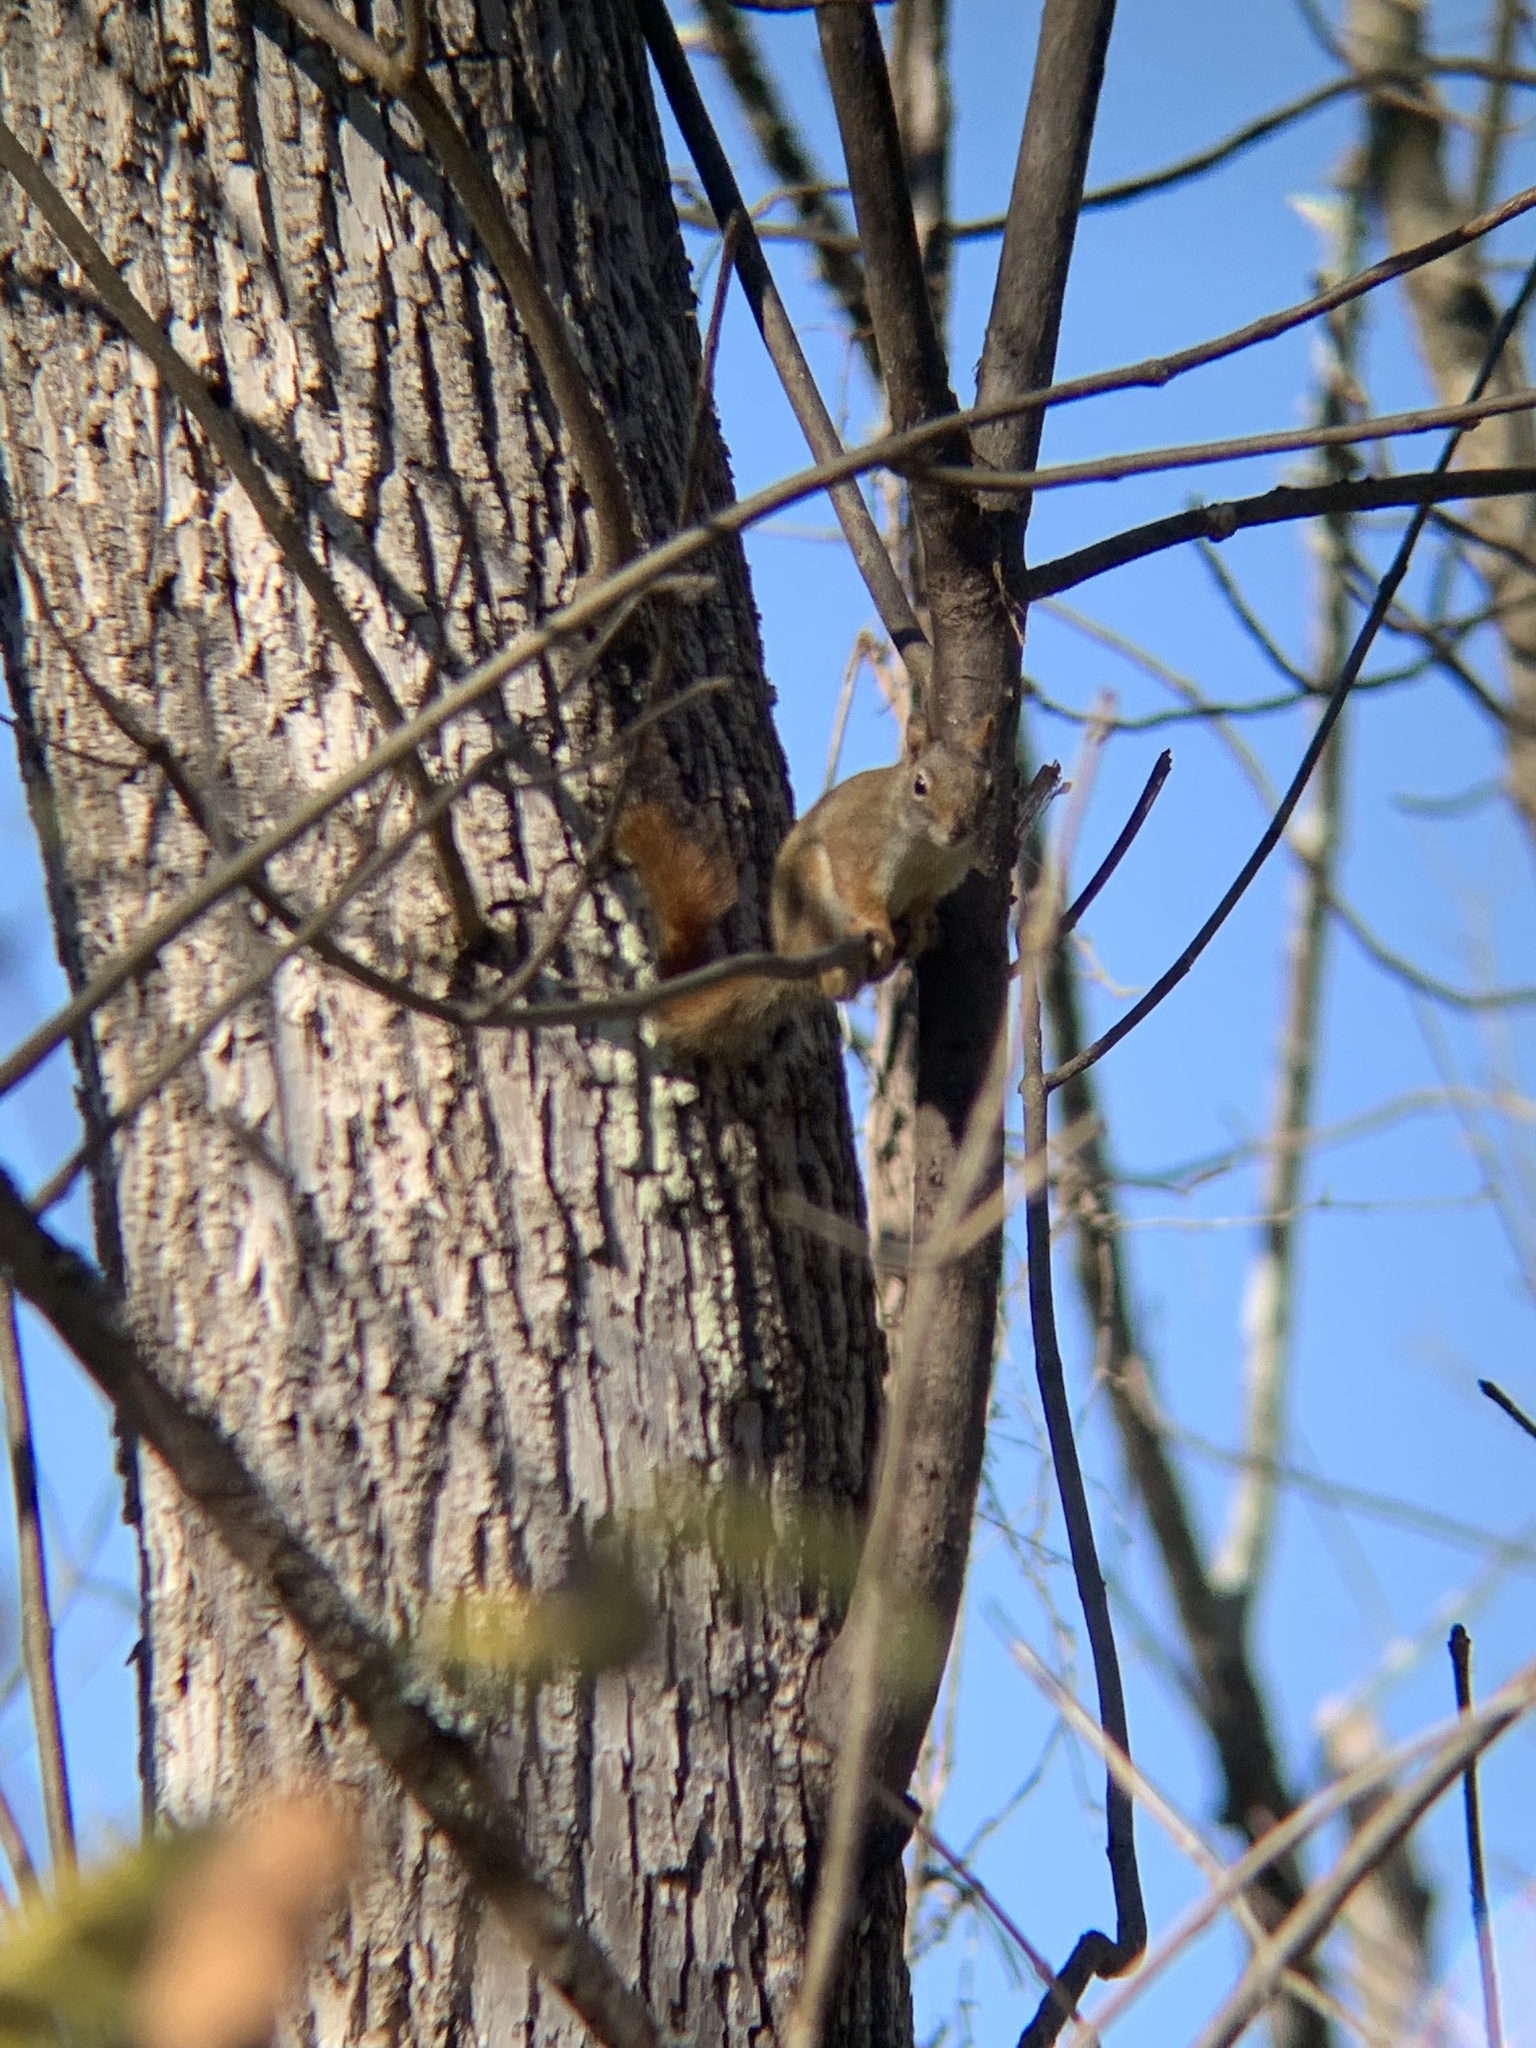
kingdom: Animalia
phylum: Chordata
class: Mammalia
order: Rodentia
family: Sciuridae
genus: Tamiasciurus
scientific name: Tamiasciurus hudsonicus
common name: Red squirrel
